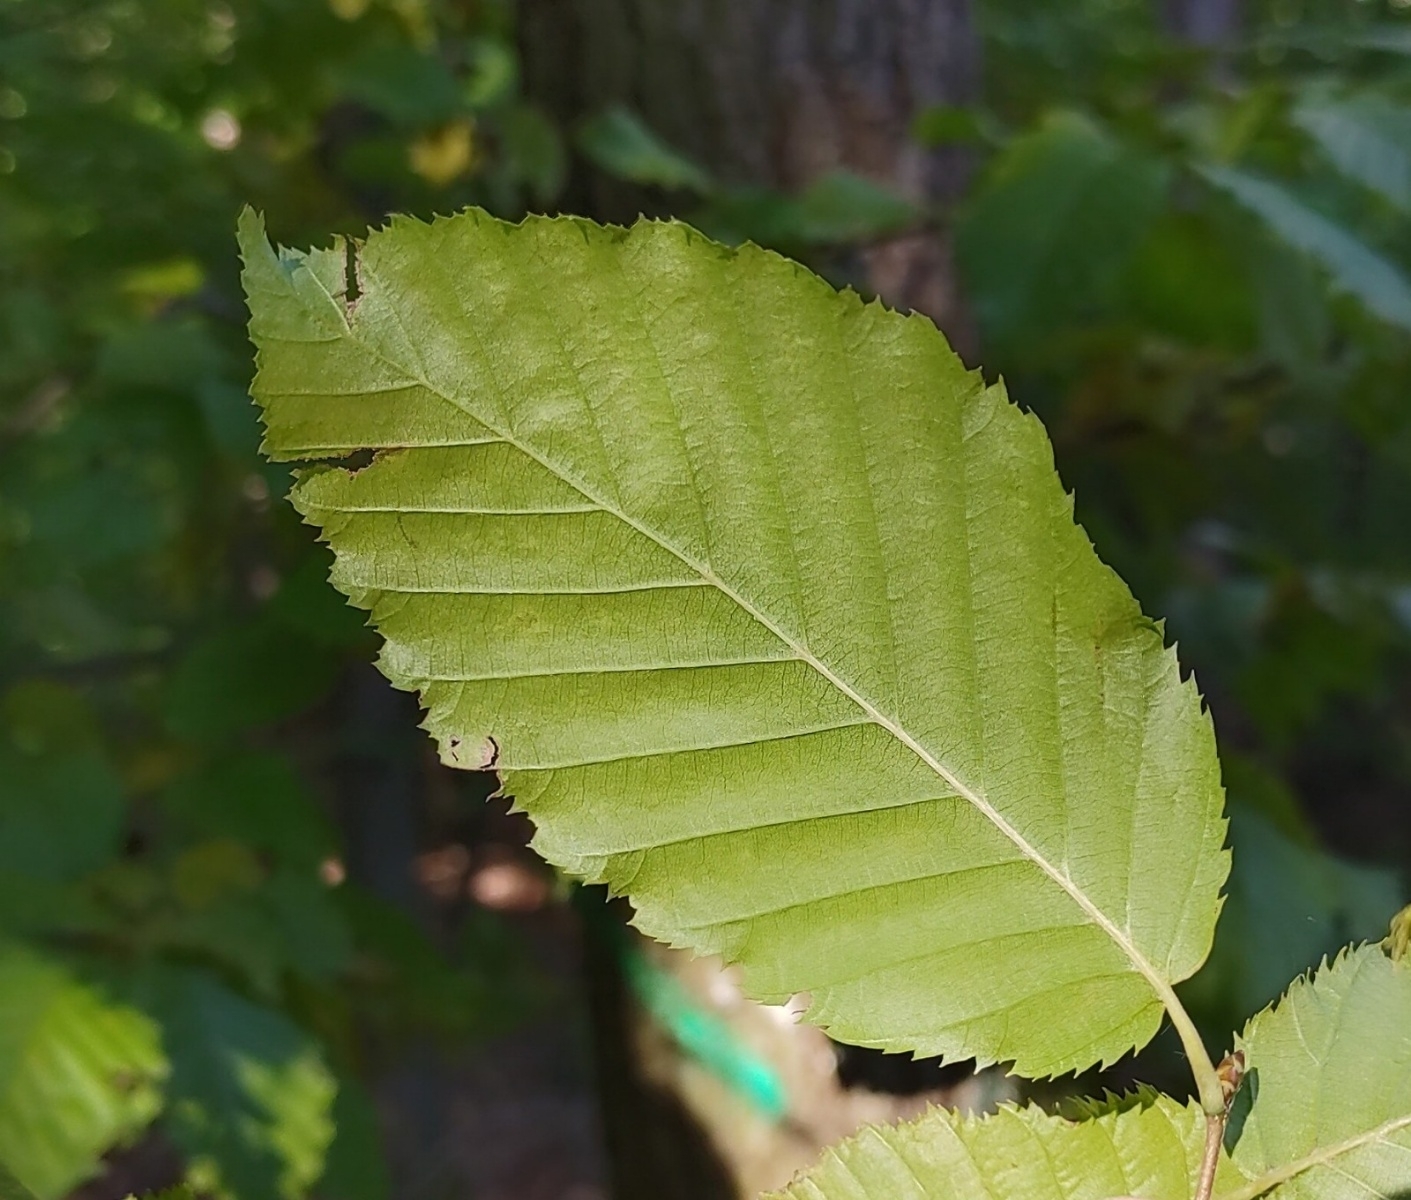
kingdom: Plantae
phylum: Tracheophyta
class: Magnoliopsida
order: Fagales
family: Betulaceae
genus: Carpinus
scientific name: Carpinus betulus
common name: Hornbeam
